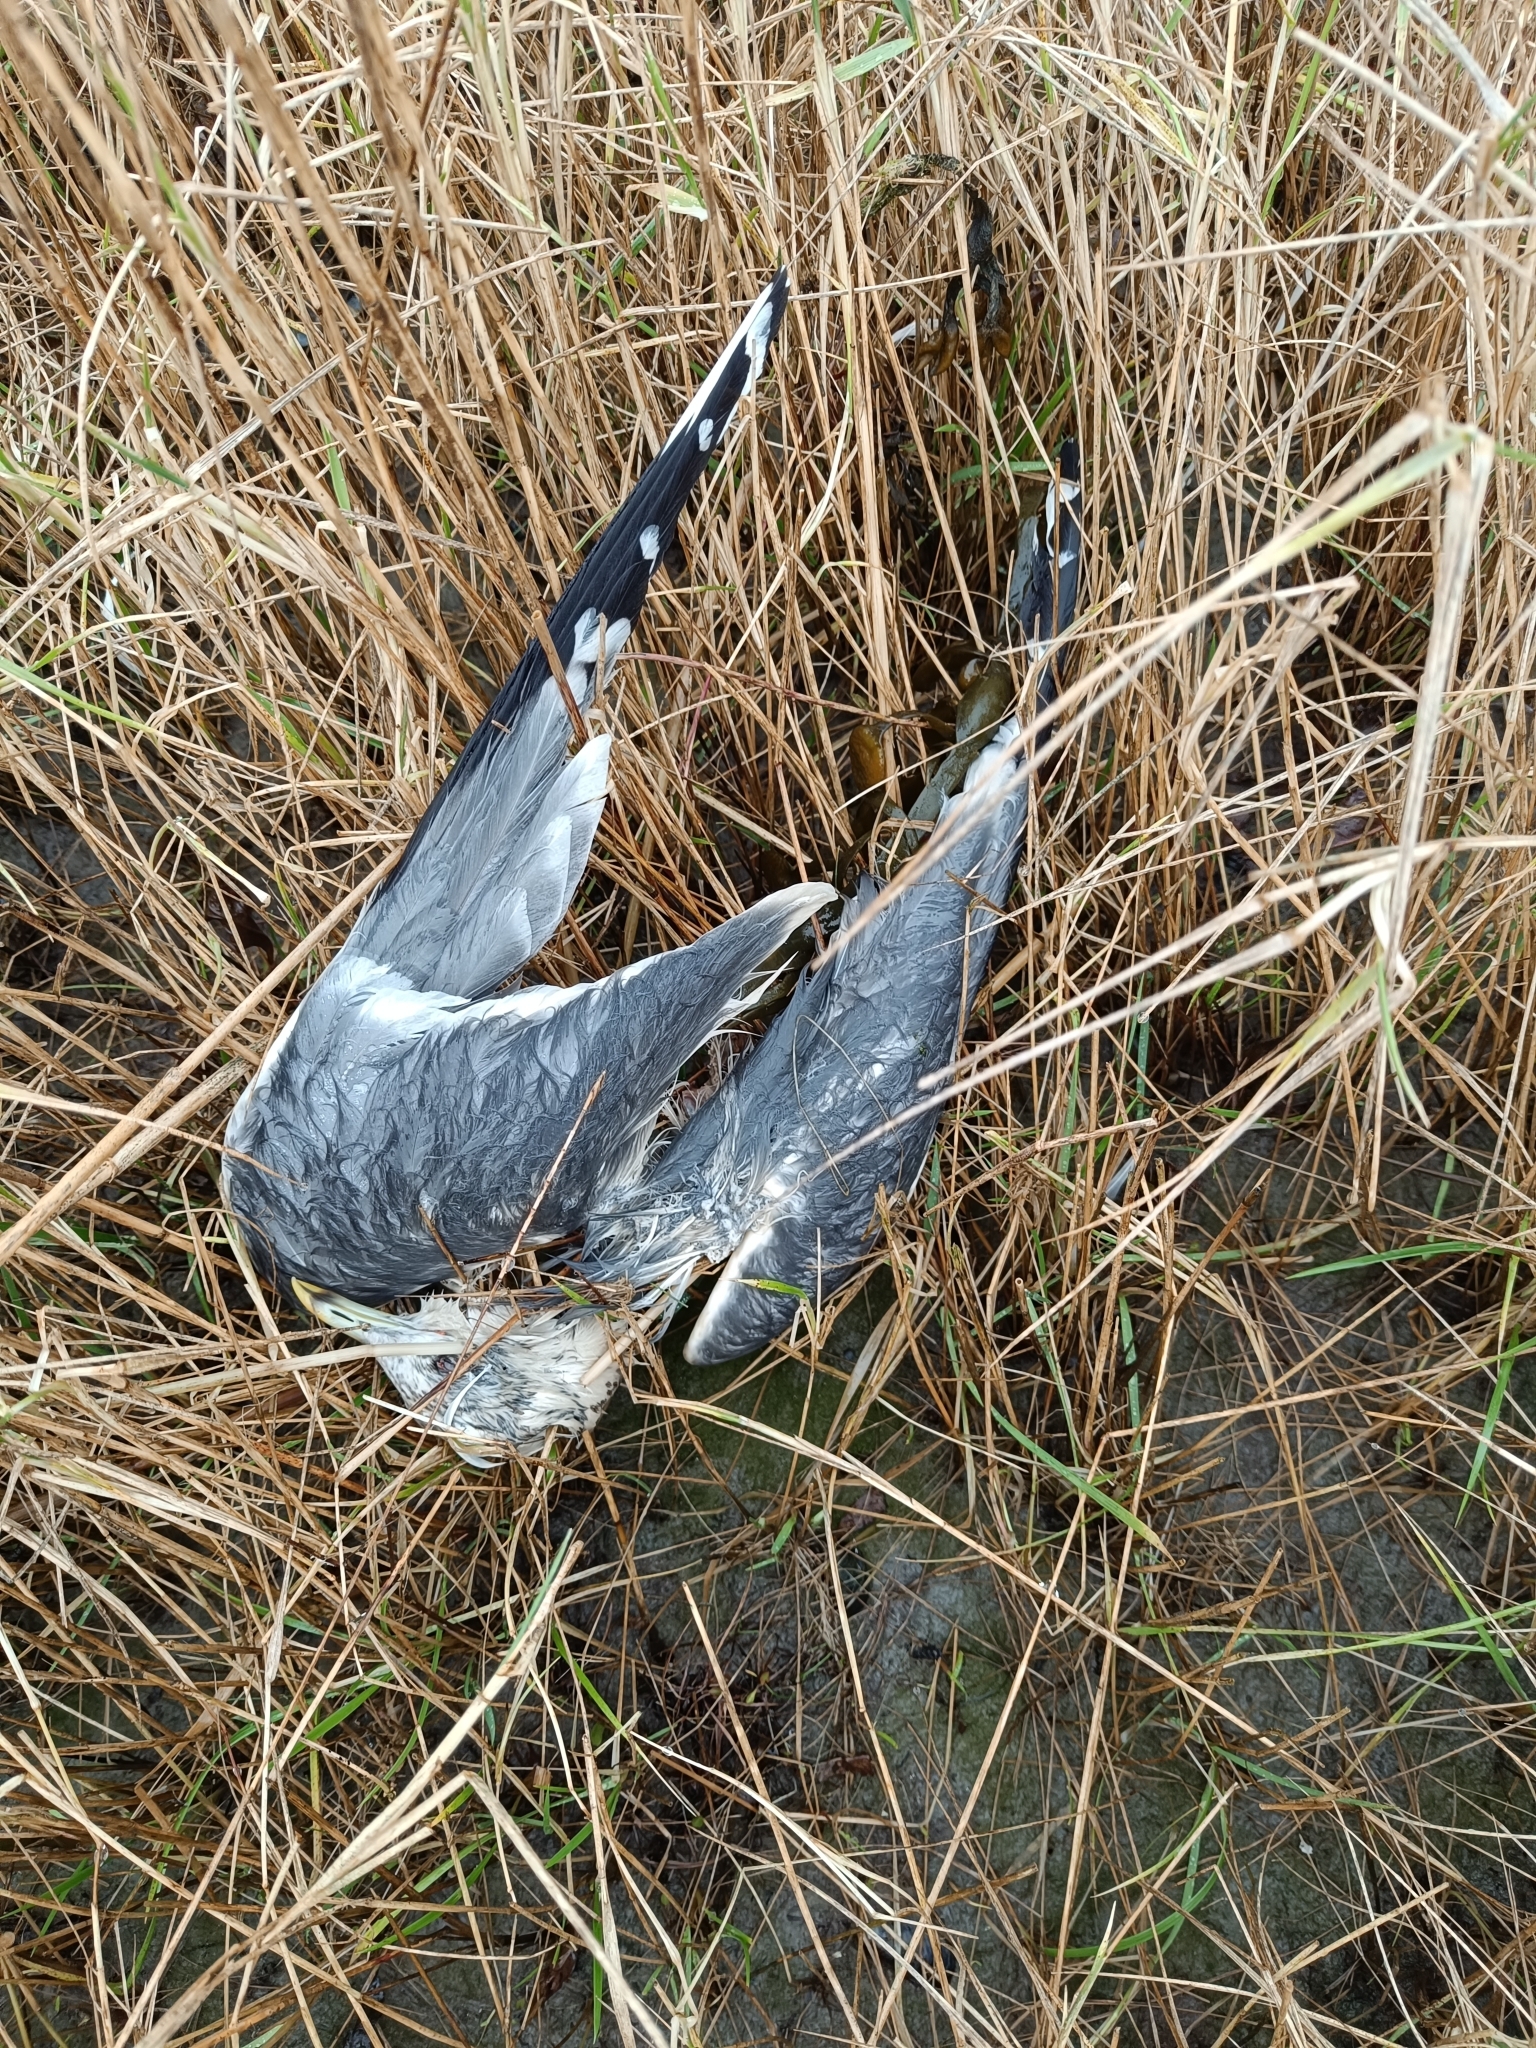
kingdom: Animalia
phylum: Chordata
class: Aves
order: Charadriiformes
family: Laridae
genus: Larus
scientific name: Larus canus
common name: Mew gull
